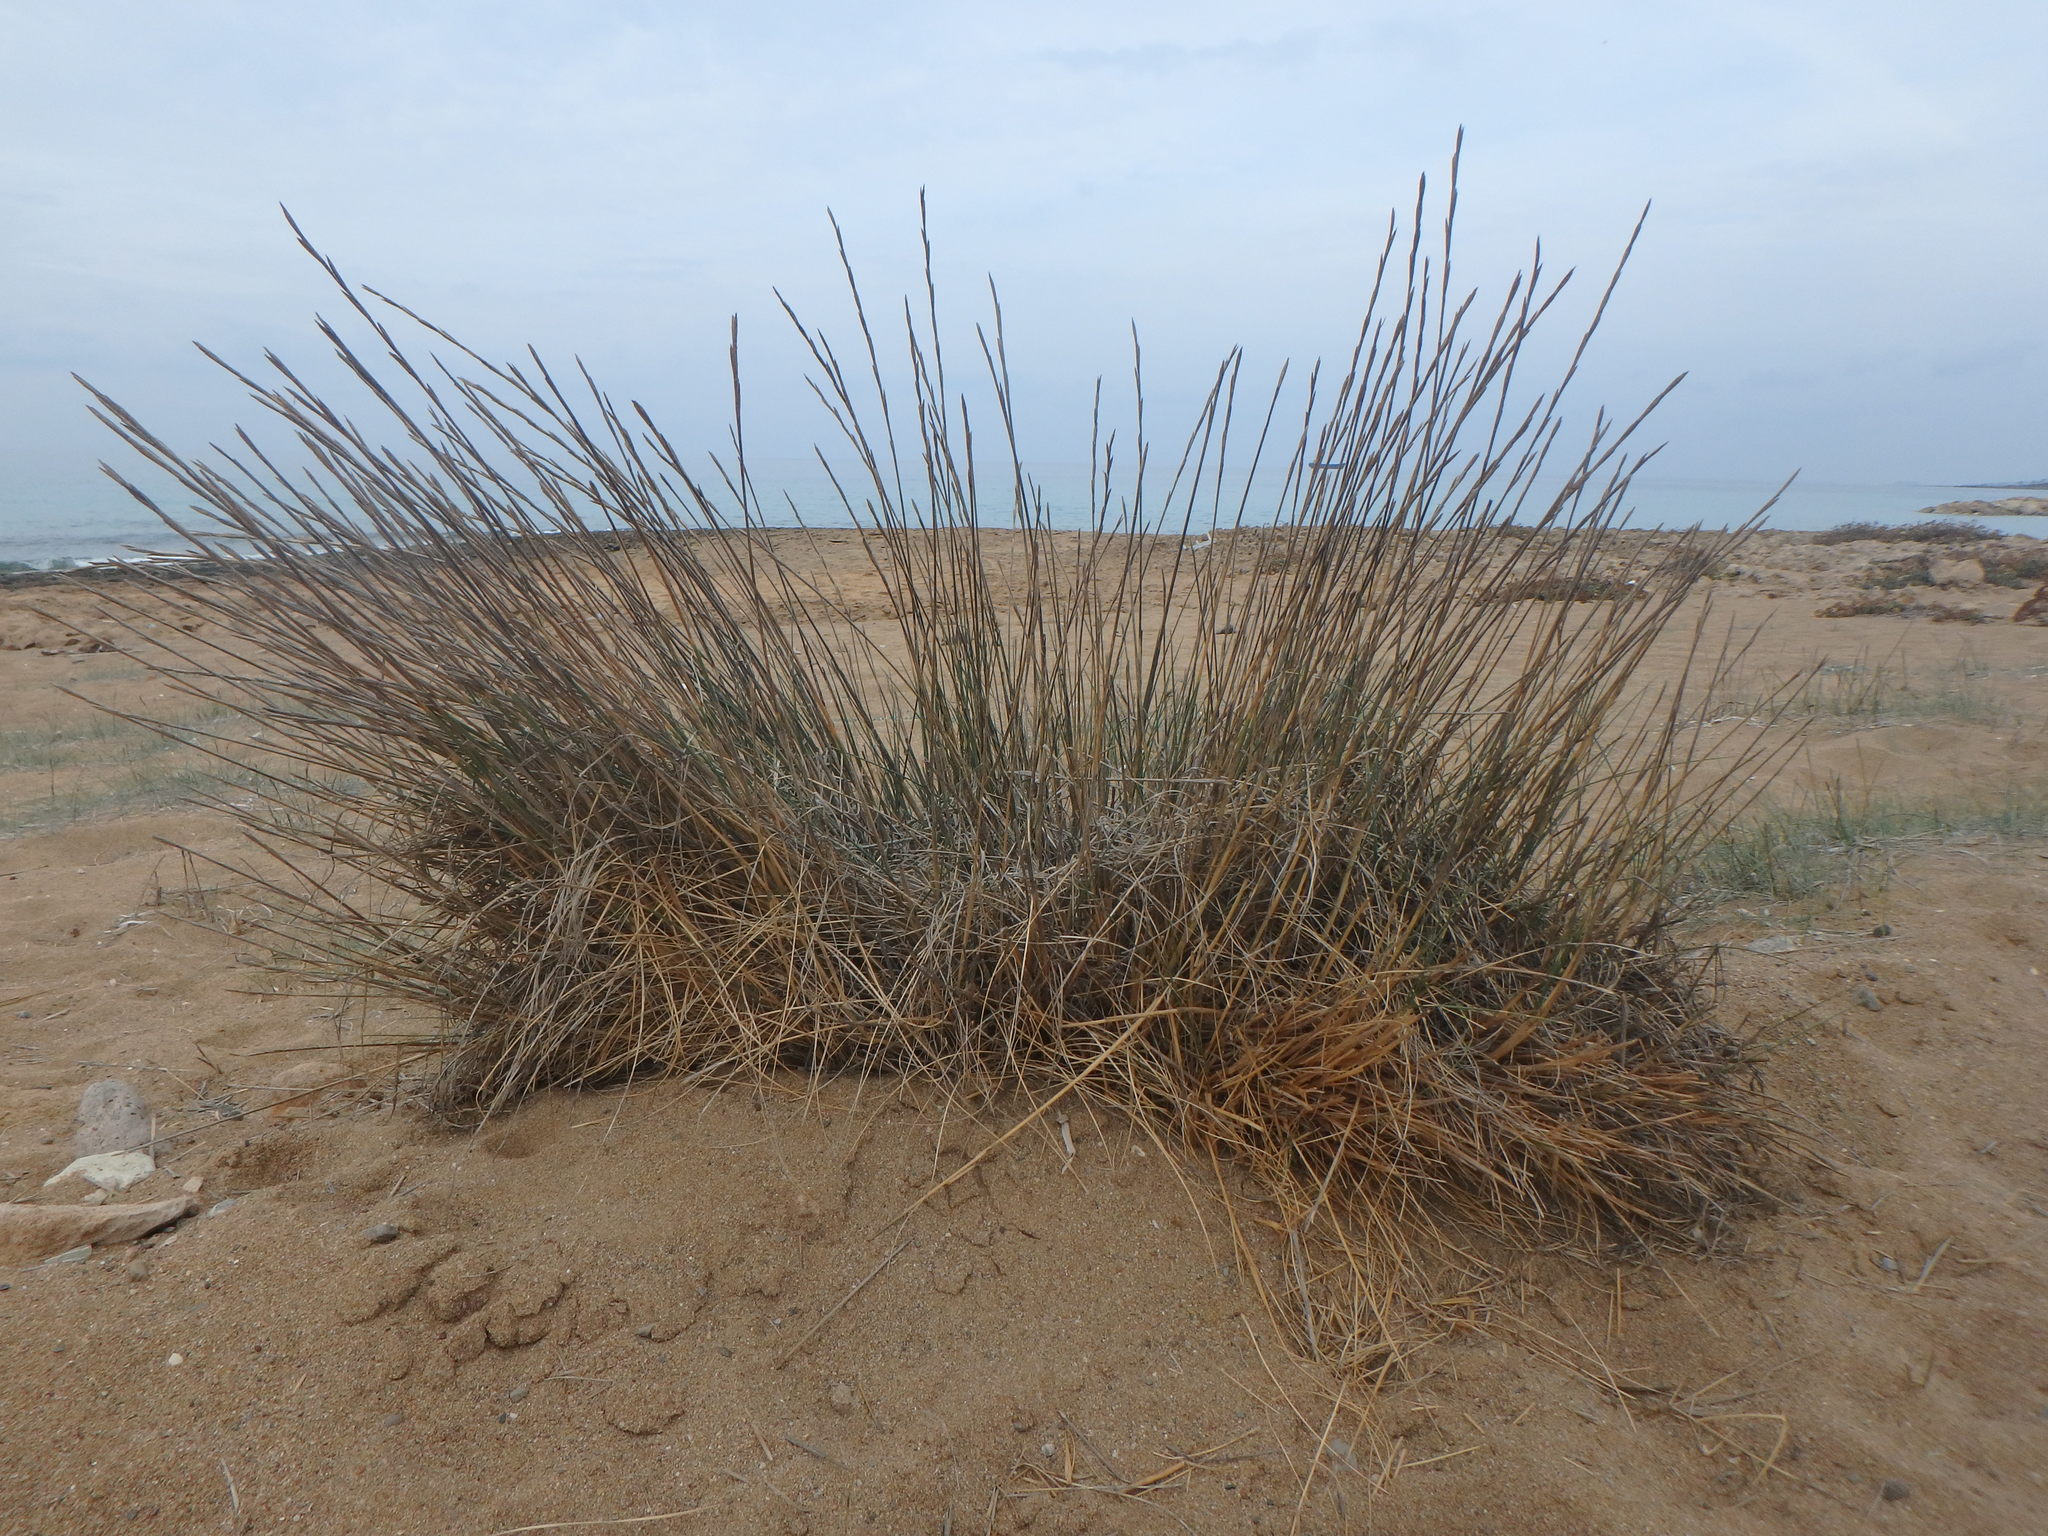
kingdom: Plantae
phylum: Tracheophyta
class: Liliopsida
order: Poales
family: Poaceae
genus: Thinopyrum
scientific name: Thinopyrum junceum
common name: Russian wheatgrass
